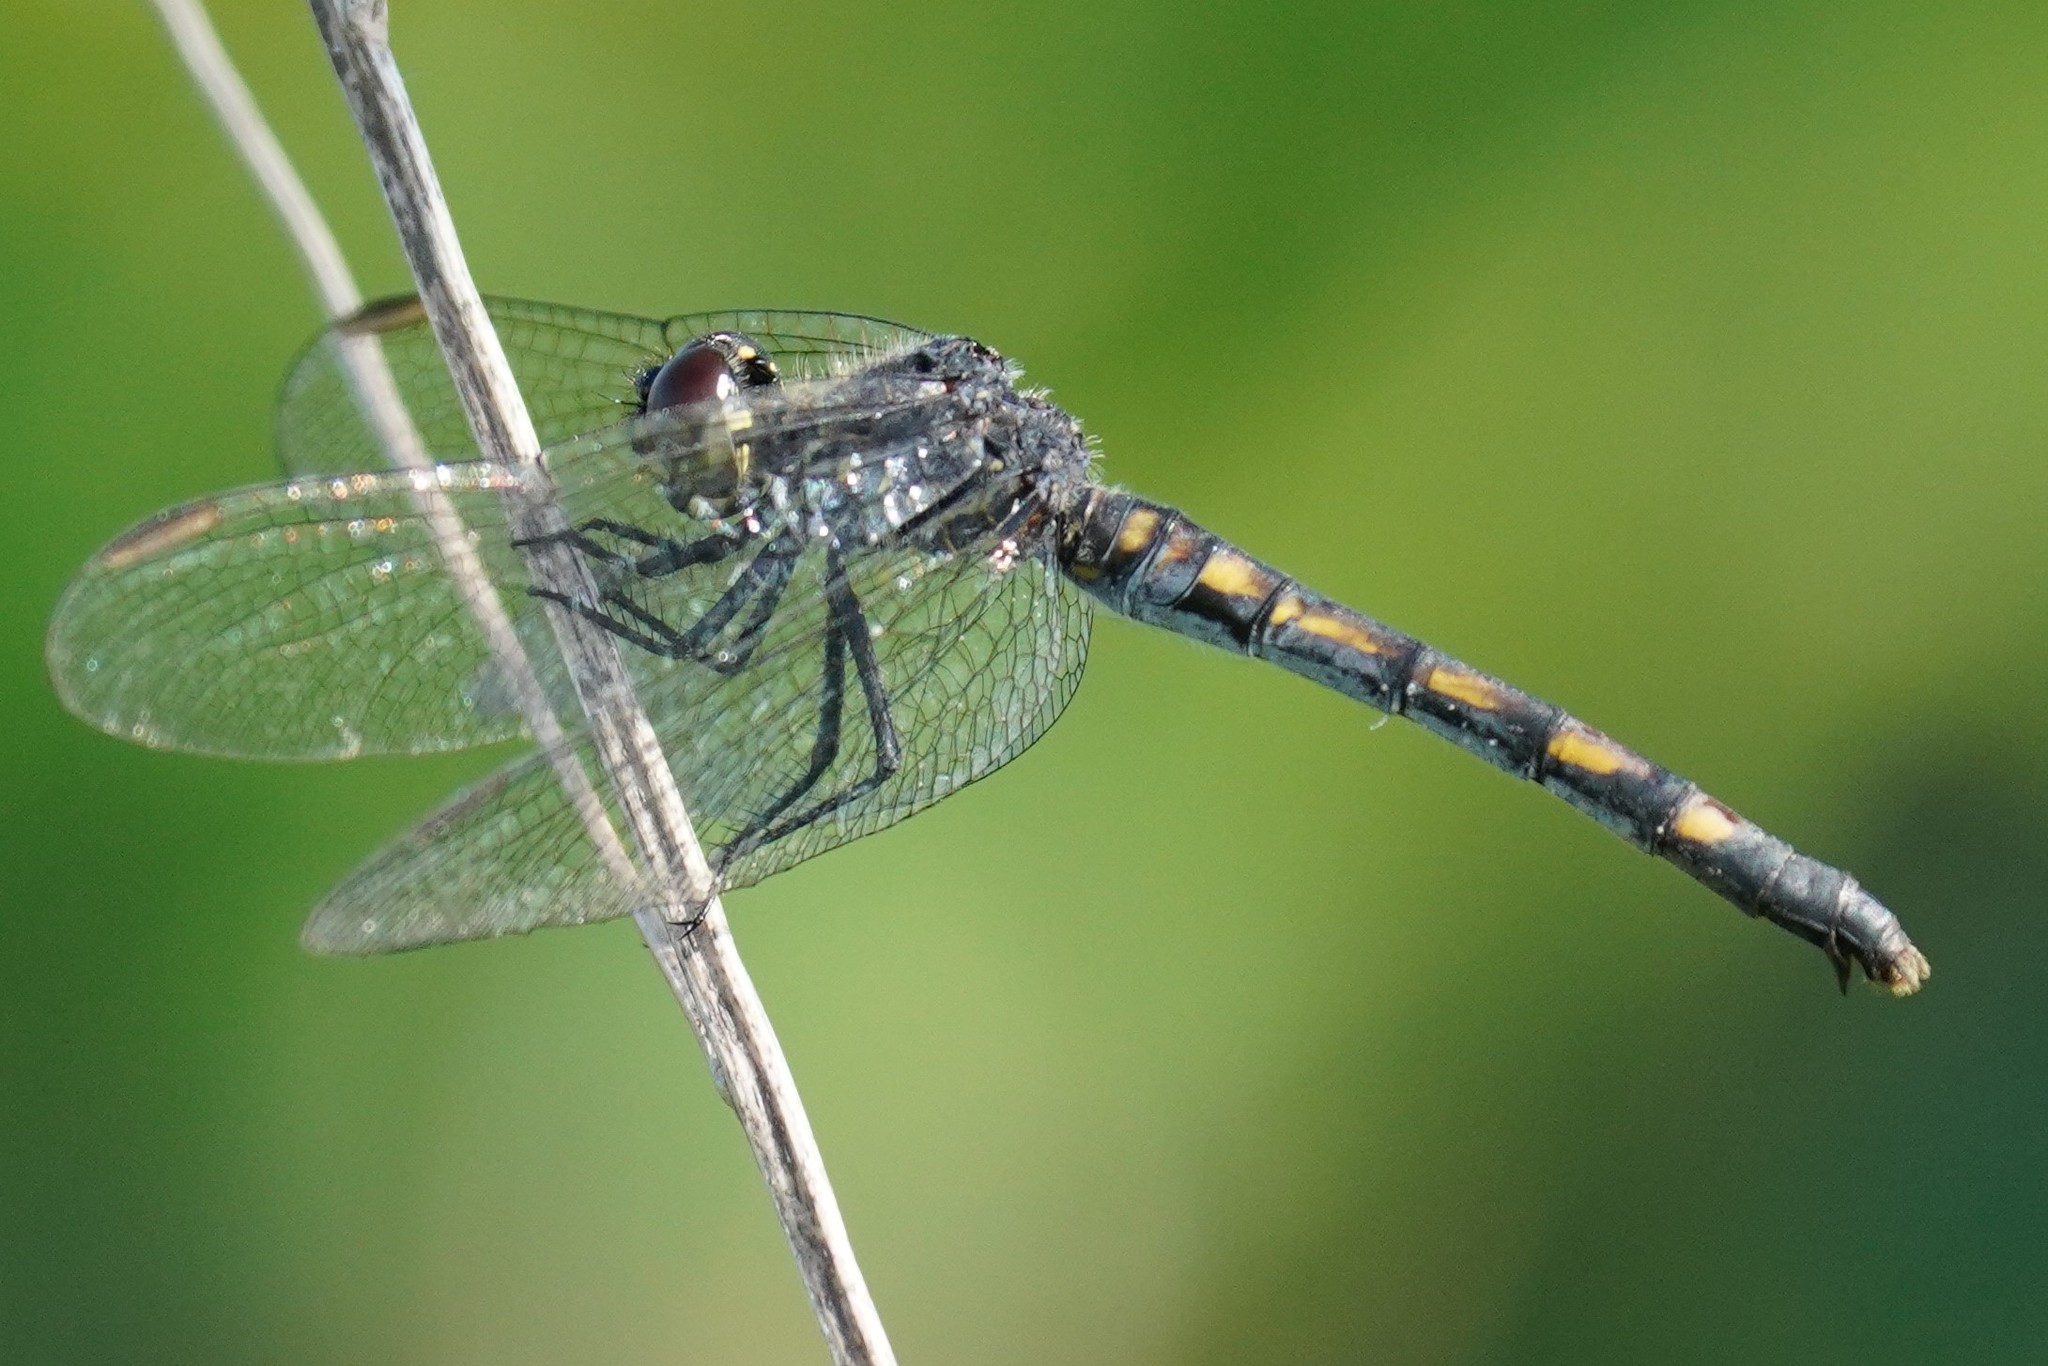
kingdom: Animalia
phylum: Arthropoda
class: Insecta
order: Odonata
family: Libellulidae
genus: Erythrodiplax
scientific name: Erythrodiplax berenice
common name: Seaside dragonlet
